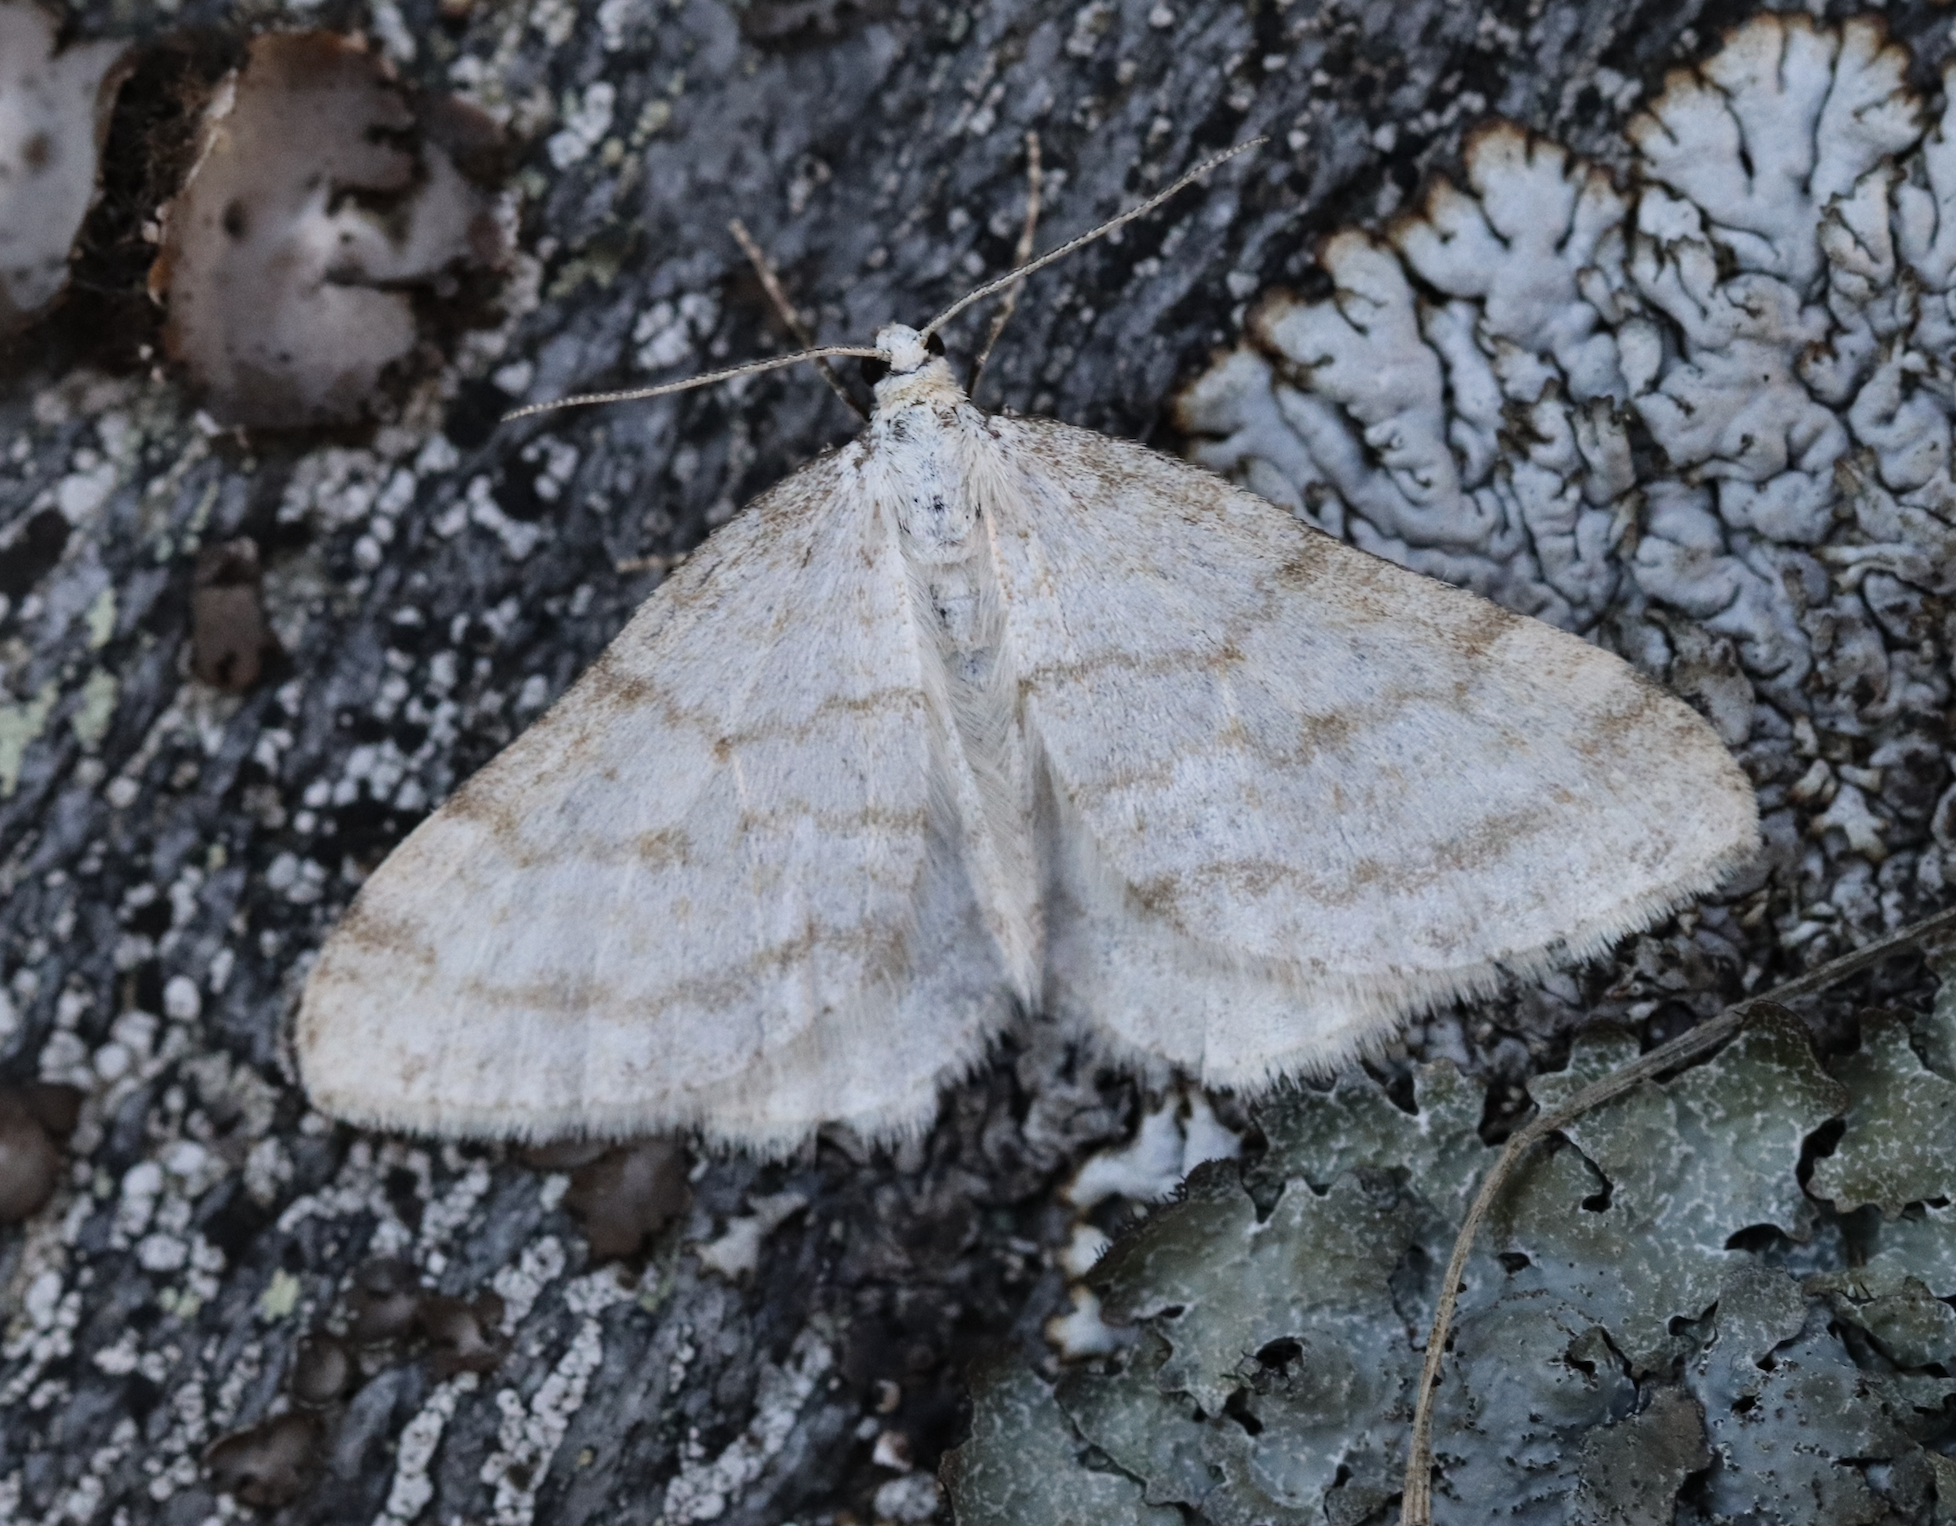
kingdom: Animalia
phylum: Arthropoda
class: Insecta
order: Lepidoptera
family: Geometridae
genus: Perizoma
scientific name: Perizoma verberata
